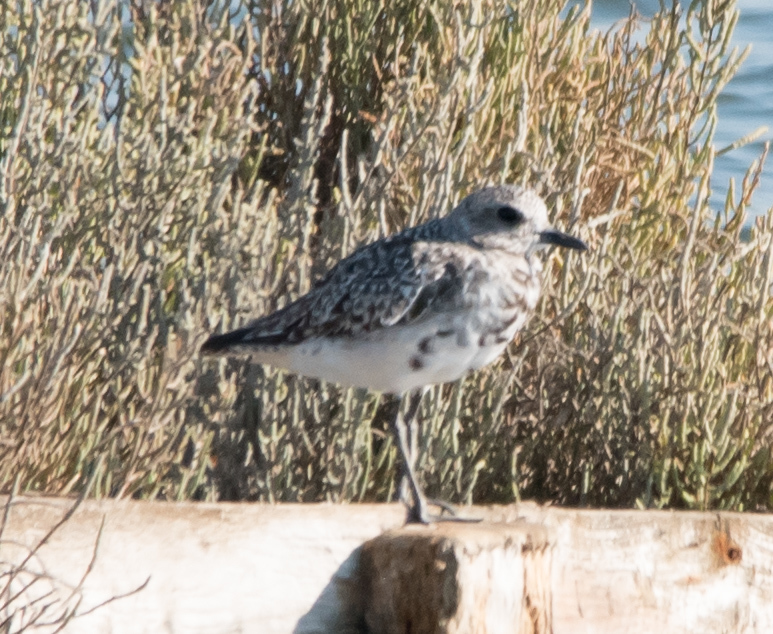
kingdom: Animalia
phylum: Chordata
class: Aves
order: Charadriiformes
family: Charadriidae
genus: Pluvialis
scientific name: Pluvialis squatarola
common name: Grey plover
